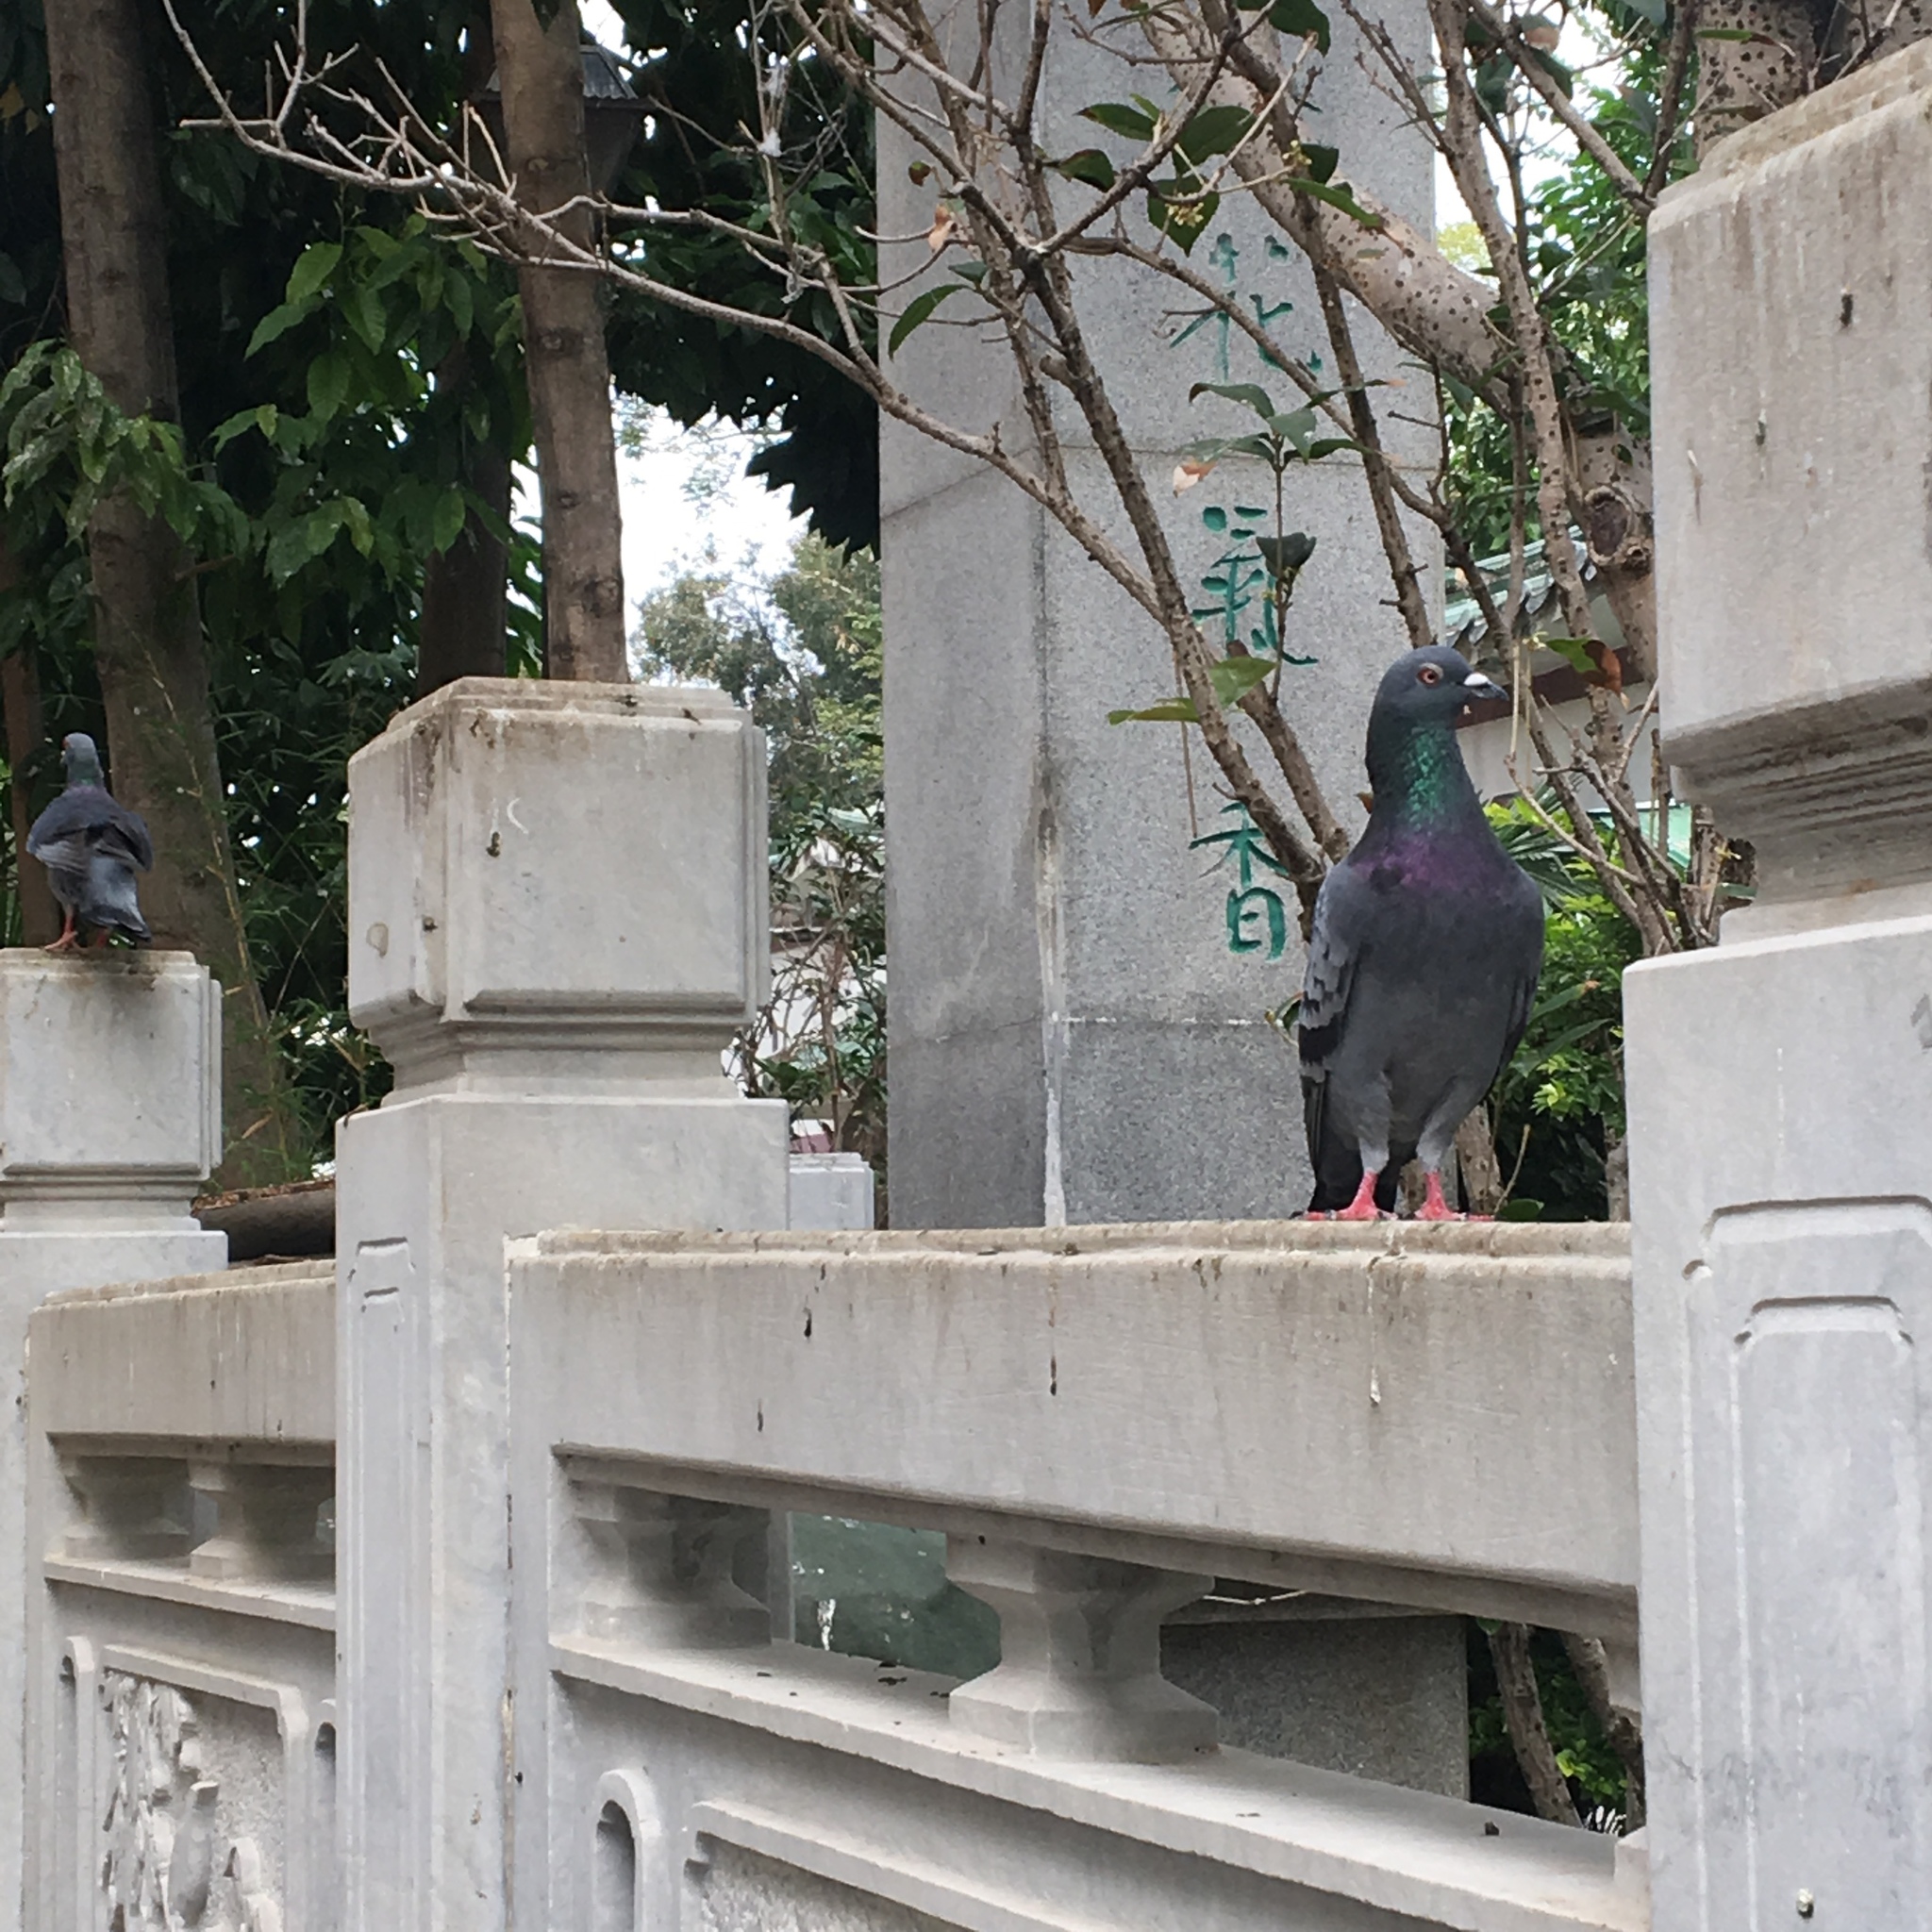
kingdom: Animalia
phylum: Chordata
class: Aves
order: Columbiformes
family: Columbidae
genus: Columba
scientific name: Columba livia
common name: Rock pigeon
